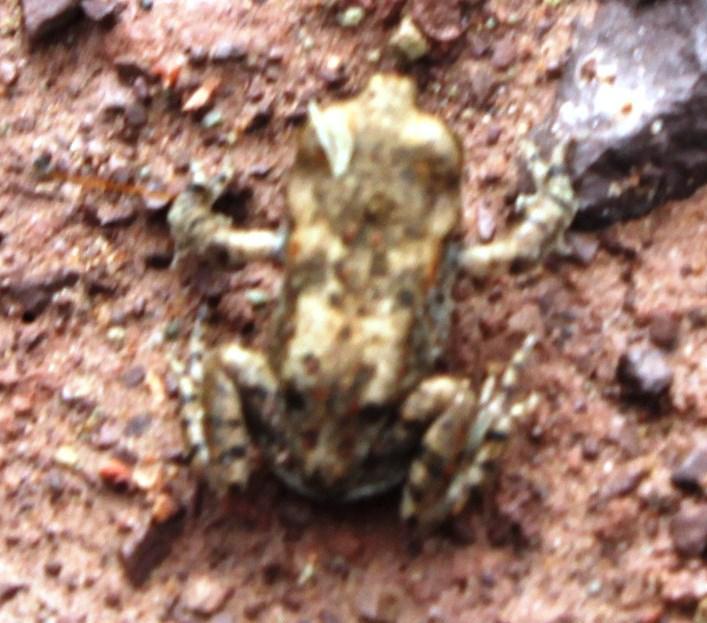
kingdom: Animalia
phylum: Chordata
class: Amphibia
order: Anura
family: Bufonidae
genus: Vandijkophrynus
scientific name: Vandijkophrynus gariepensis
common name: Gariep toad
